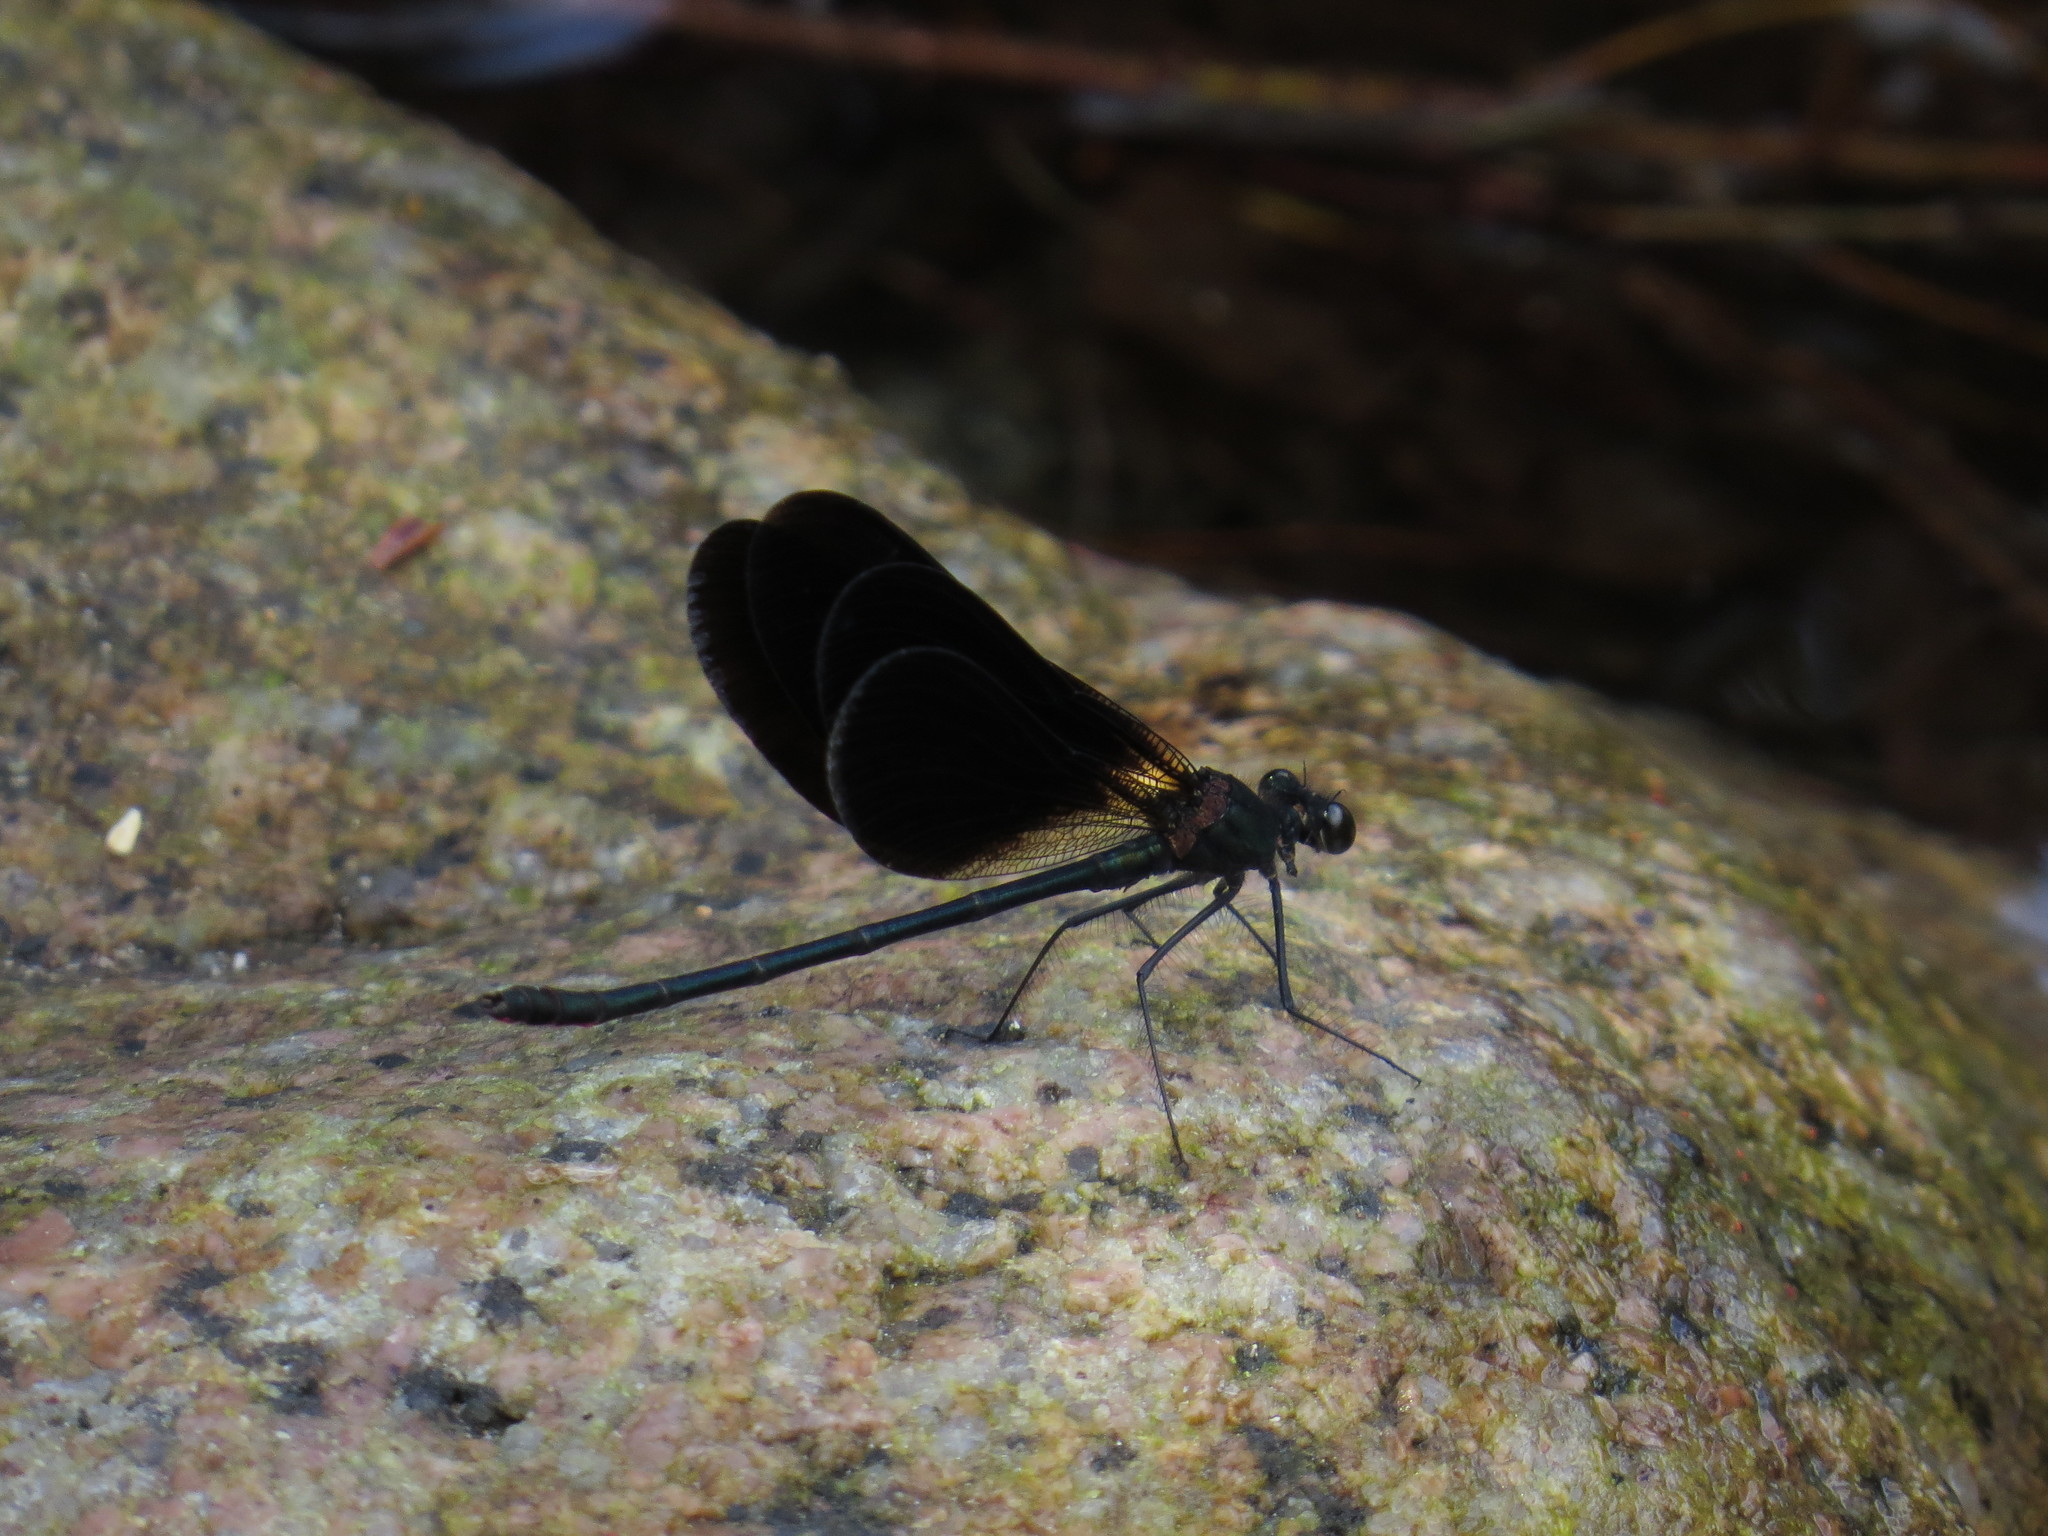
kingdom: Animalia
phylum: Arthropoda
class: Insecta
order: Odonata
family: Calopterygidae
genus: Calopteryx
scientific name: Calopteryx haemorrhoidalis
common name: Copper demoiselle
